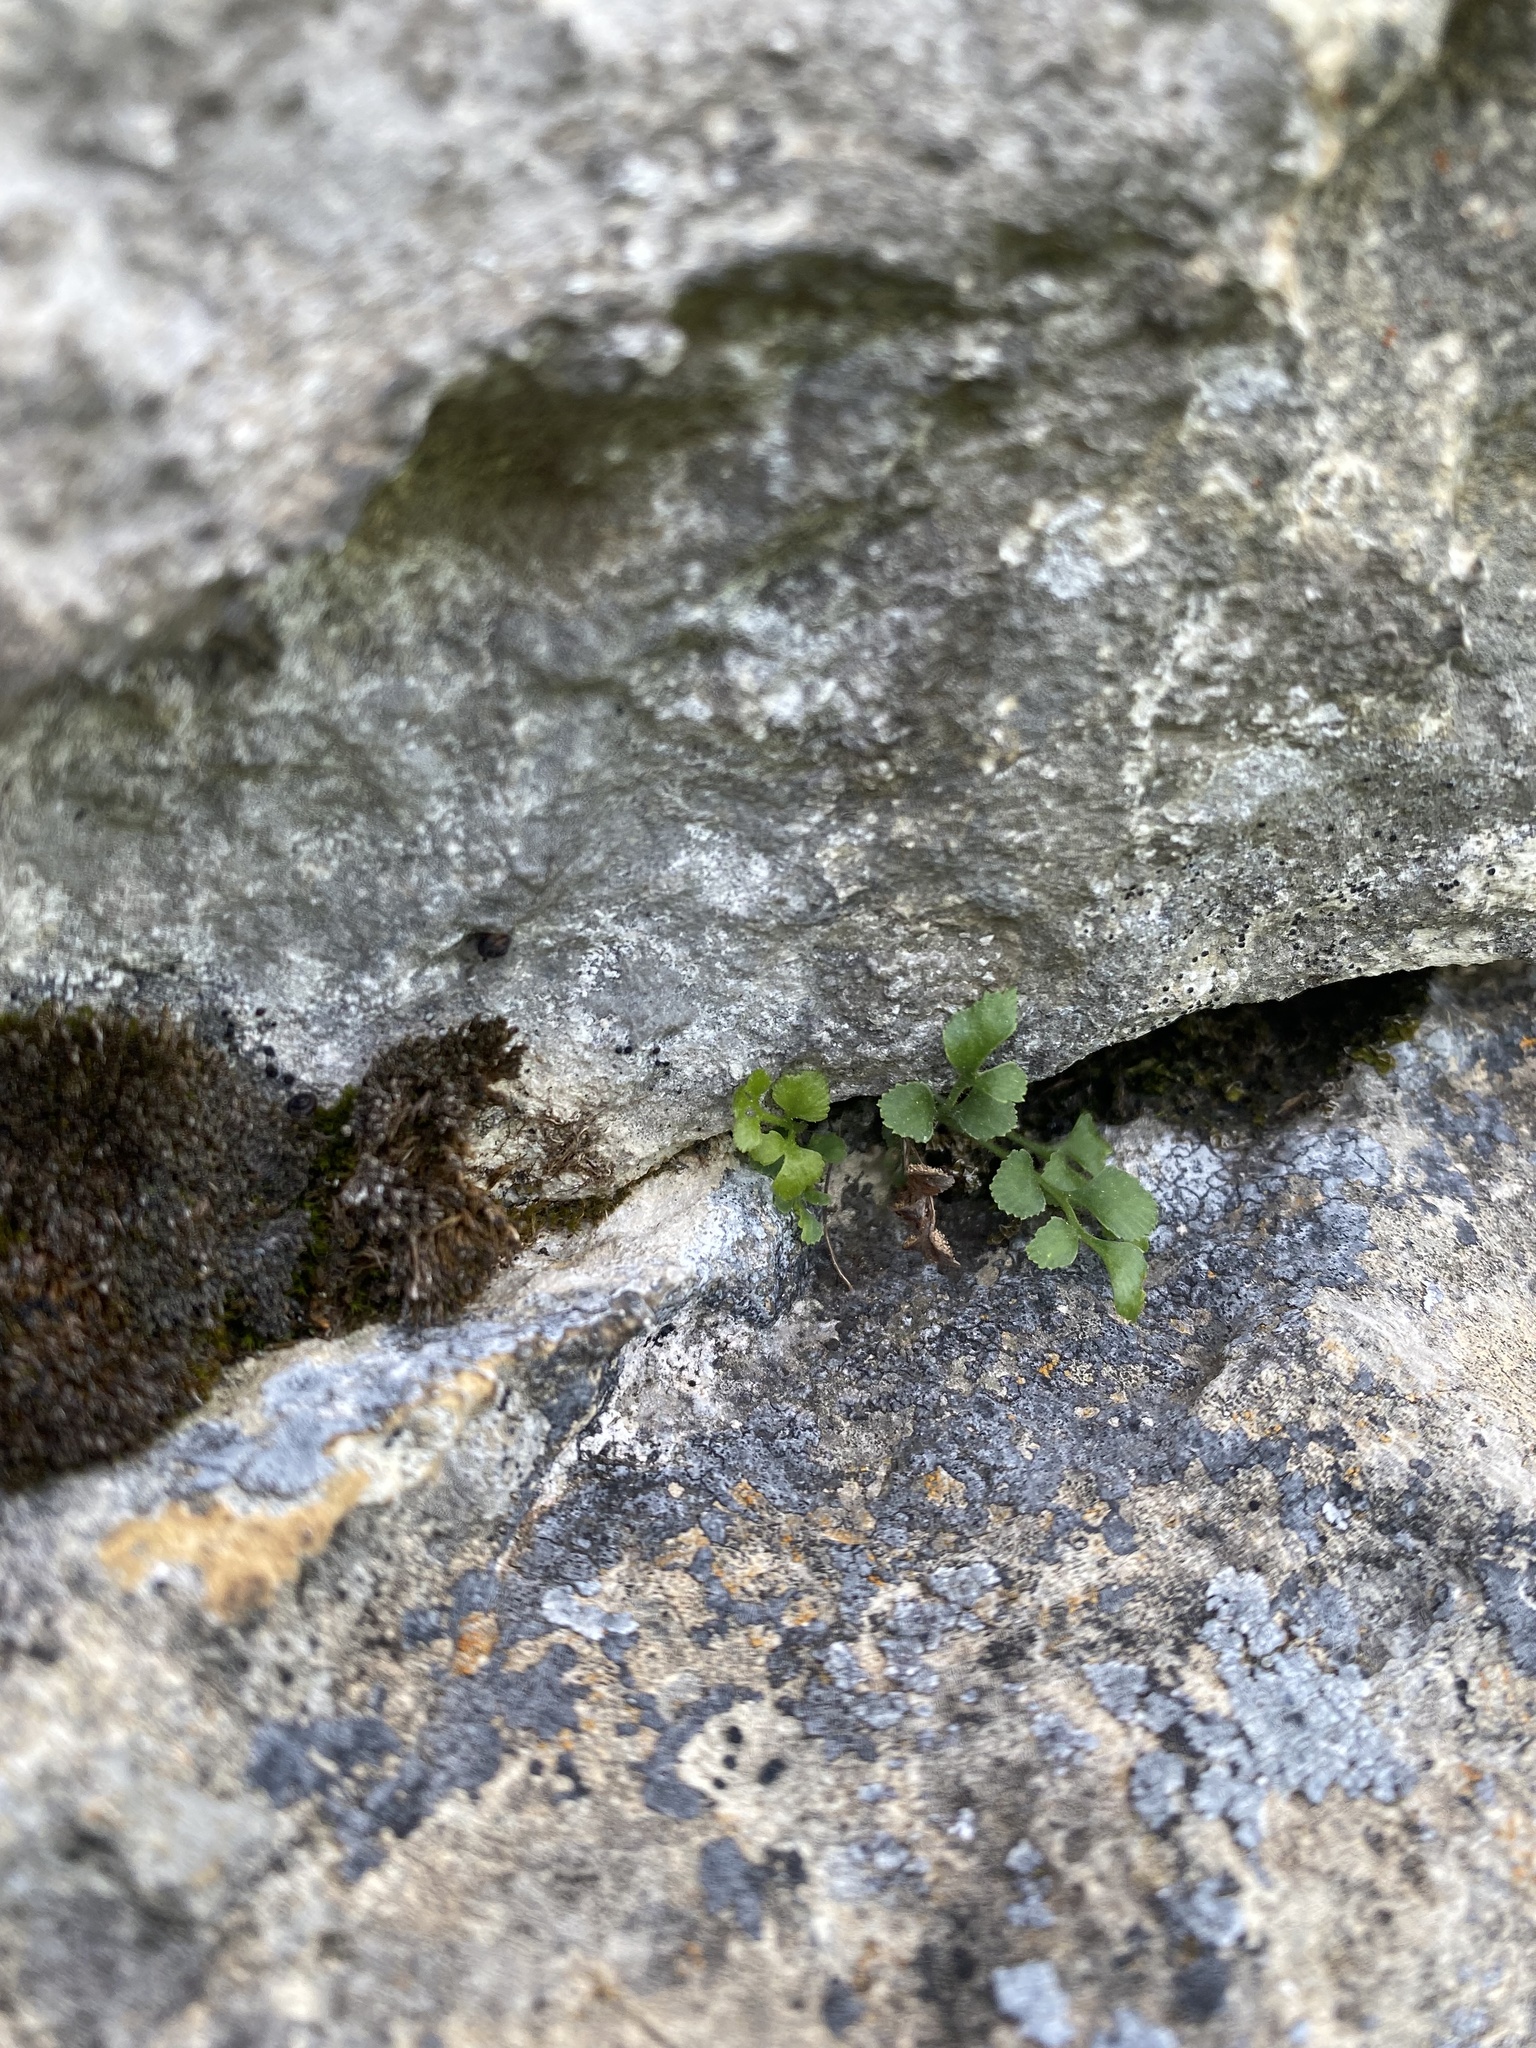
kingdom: Plantae
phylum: Tracheophyta
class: Polypodiopsida
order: Polypodiales
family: Aspleniaceae
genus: Asplenium
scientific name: Asplenium ruta-muraria
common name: Wall-rue
